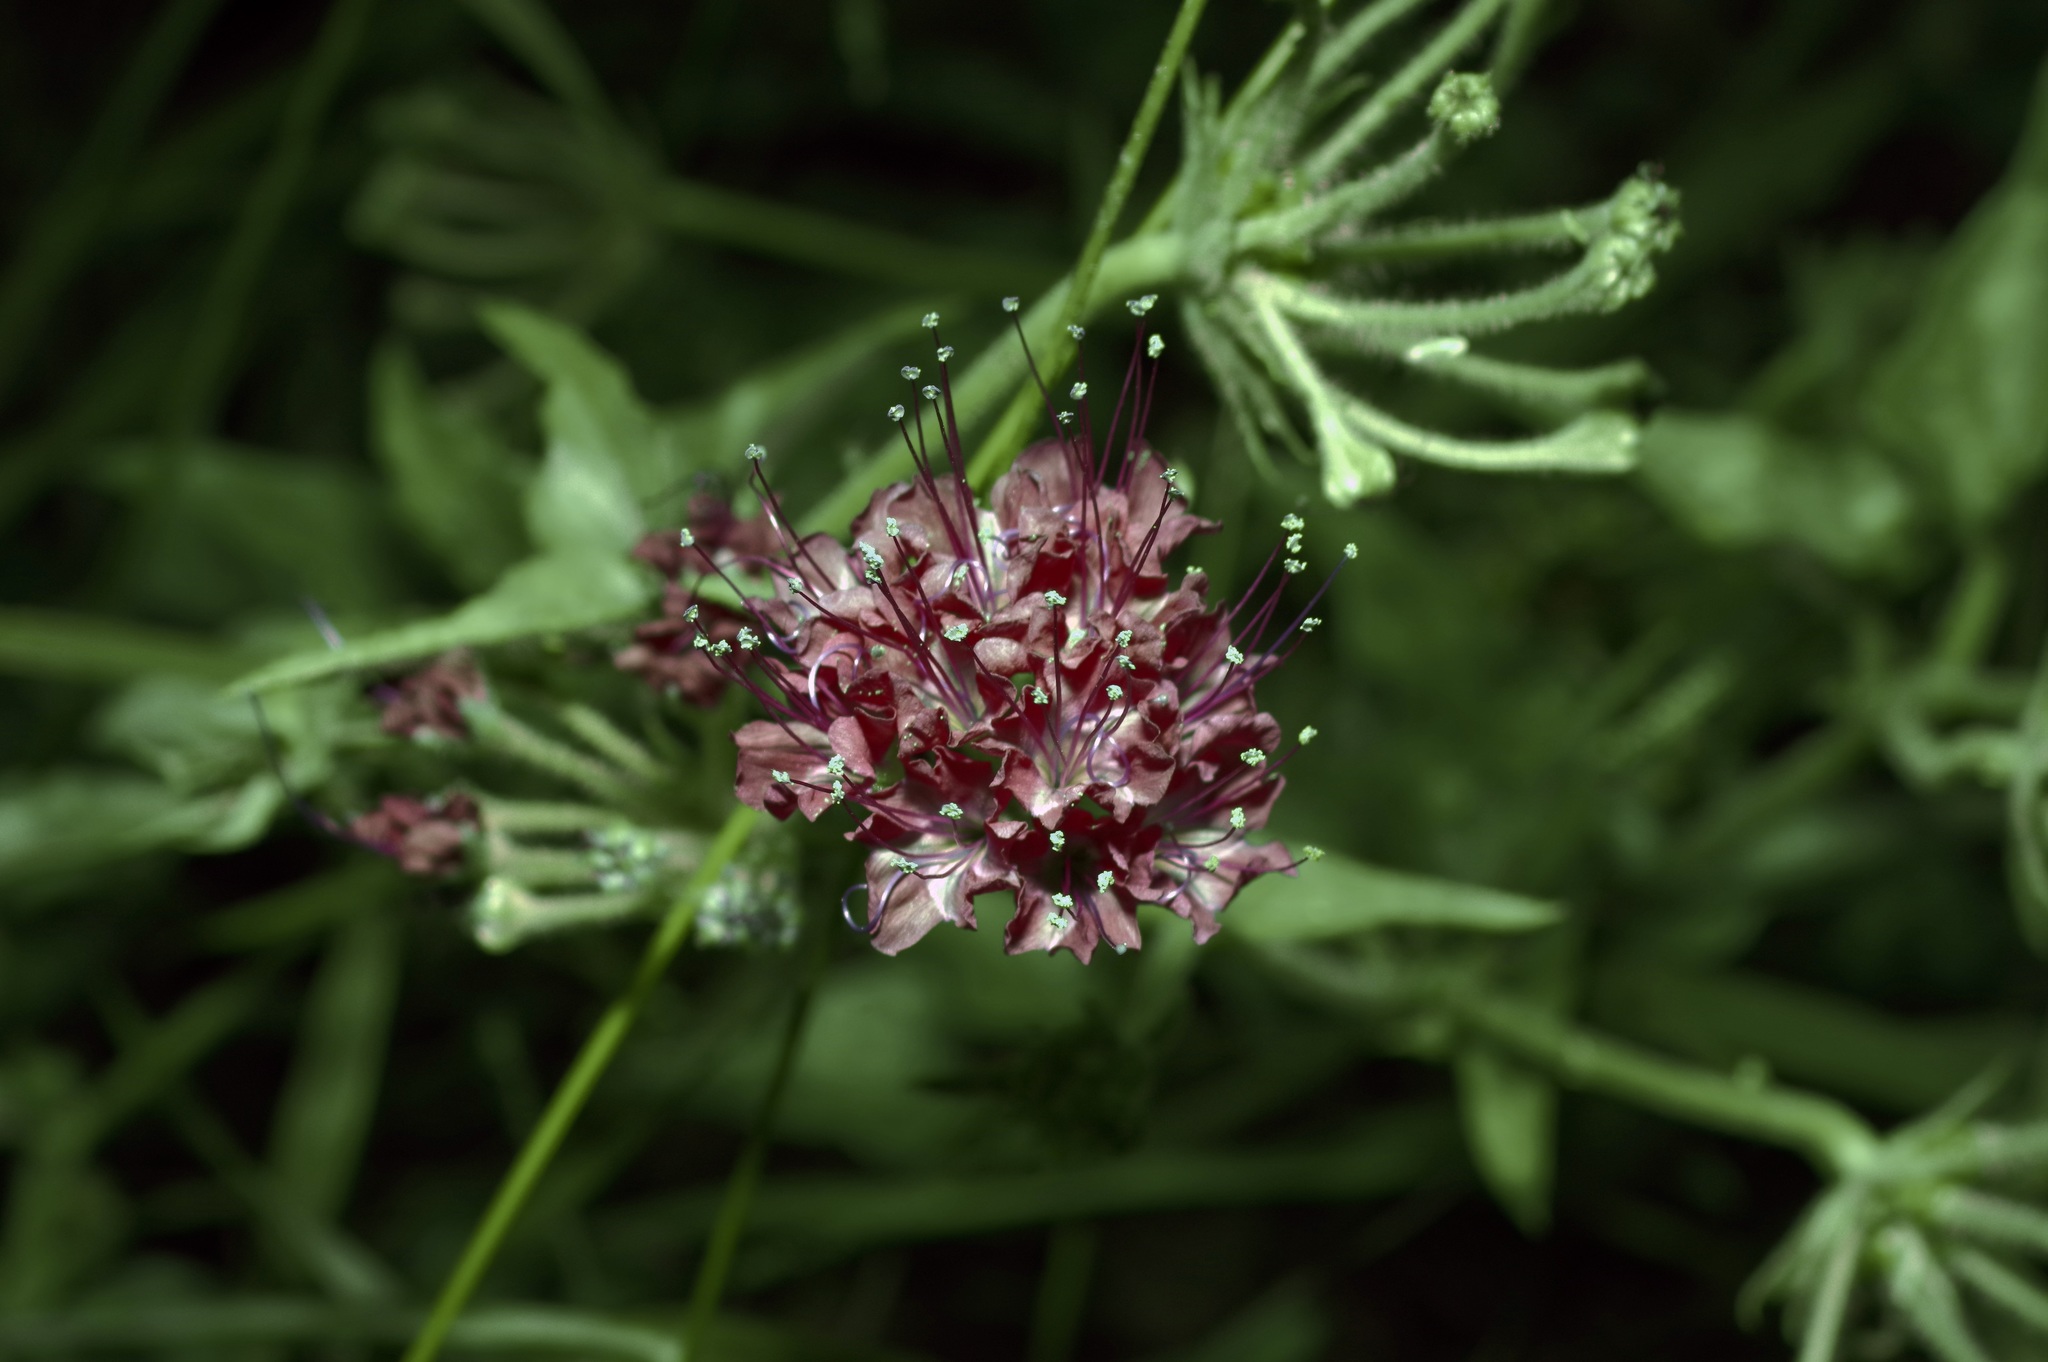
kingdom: Plantae
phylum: Tracheophyta
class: Magnoliopsida
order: Caryophyllales
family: Nyctaginaceae
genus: Nyctaginia
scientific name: Nyctaginia capitata
